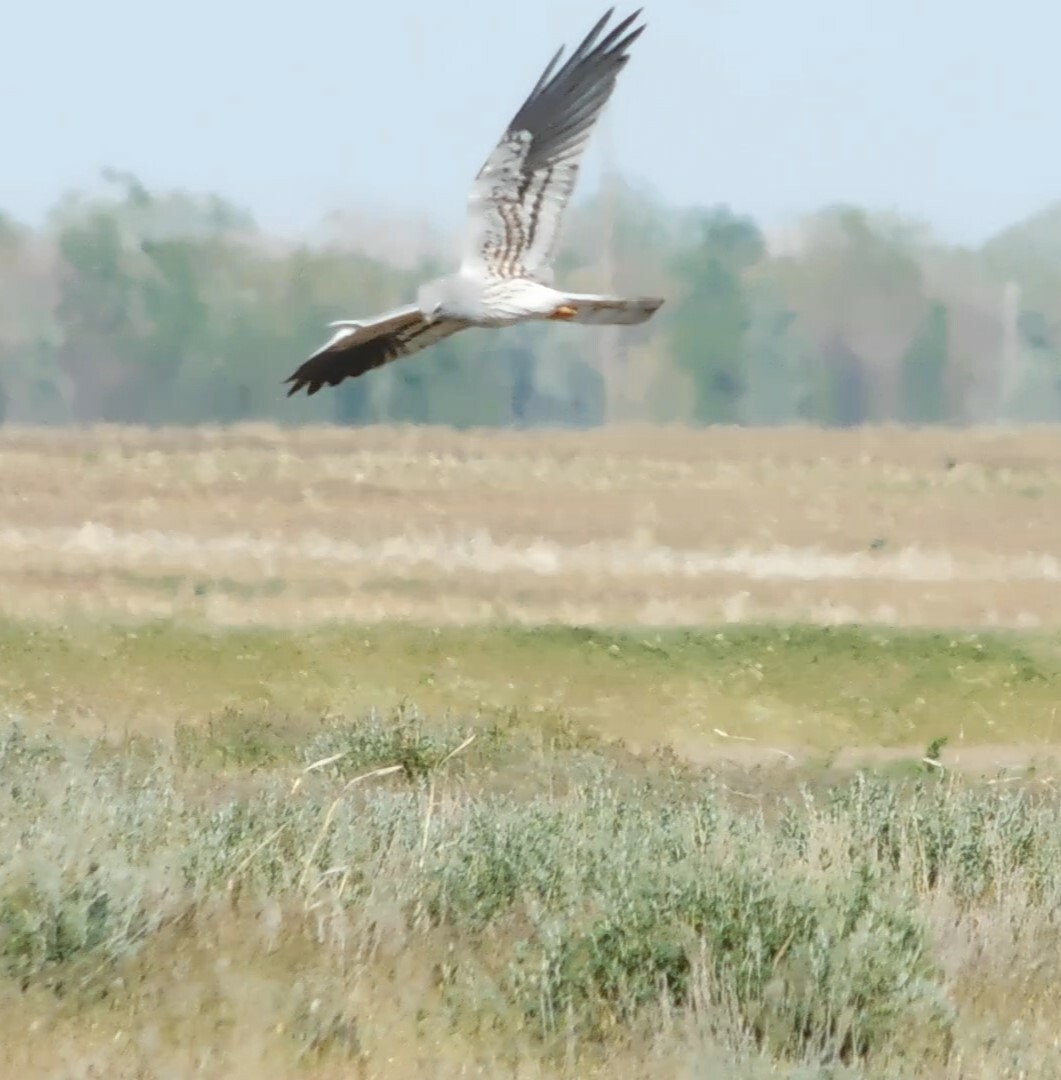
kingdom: Animalia
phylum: Chordata
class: Aves
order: Accipitriformes
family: Accipitridae
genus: Circus
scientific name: Circus pygargus
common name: Montagu's harrier
